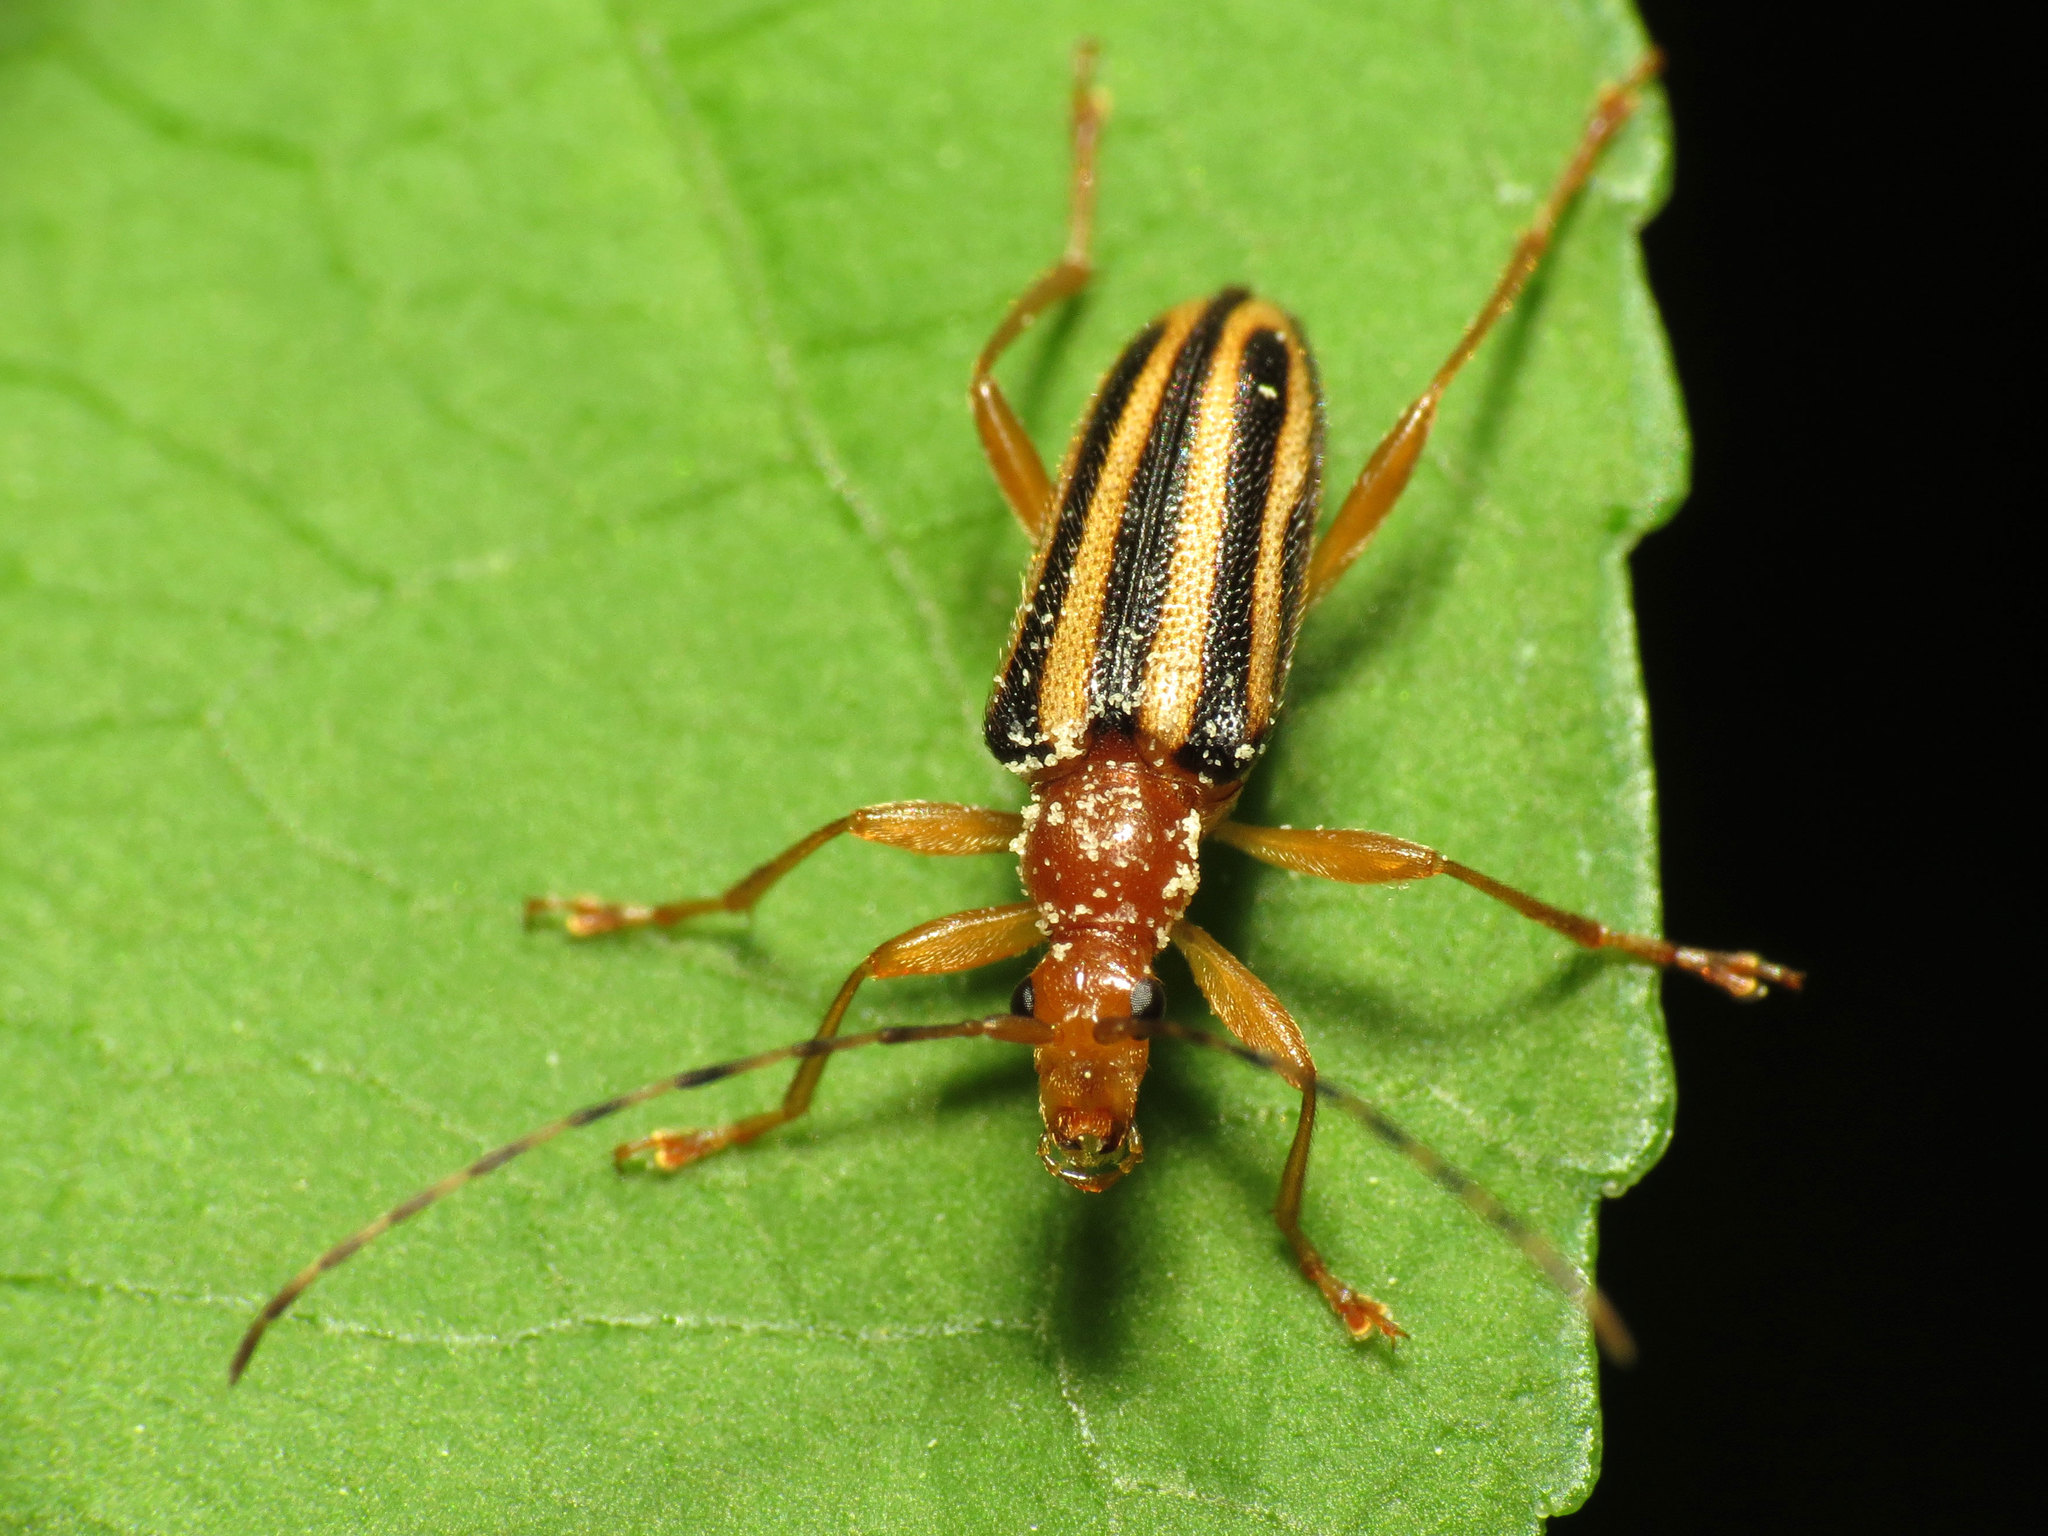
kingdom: Animalia
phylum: Arthropoda
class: Insecta
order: Coleoptera
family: Cerambycidae
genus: Metacmaeops
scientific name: Metacmaeops vittata
